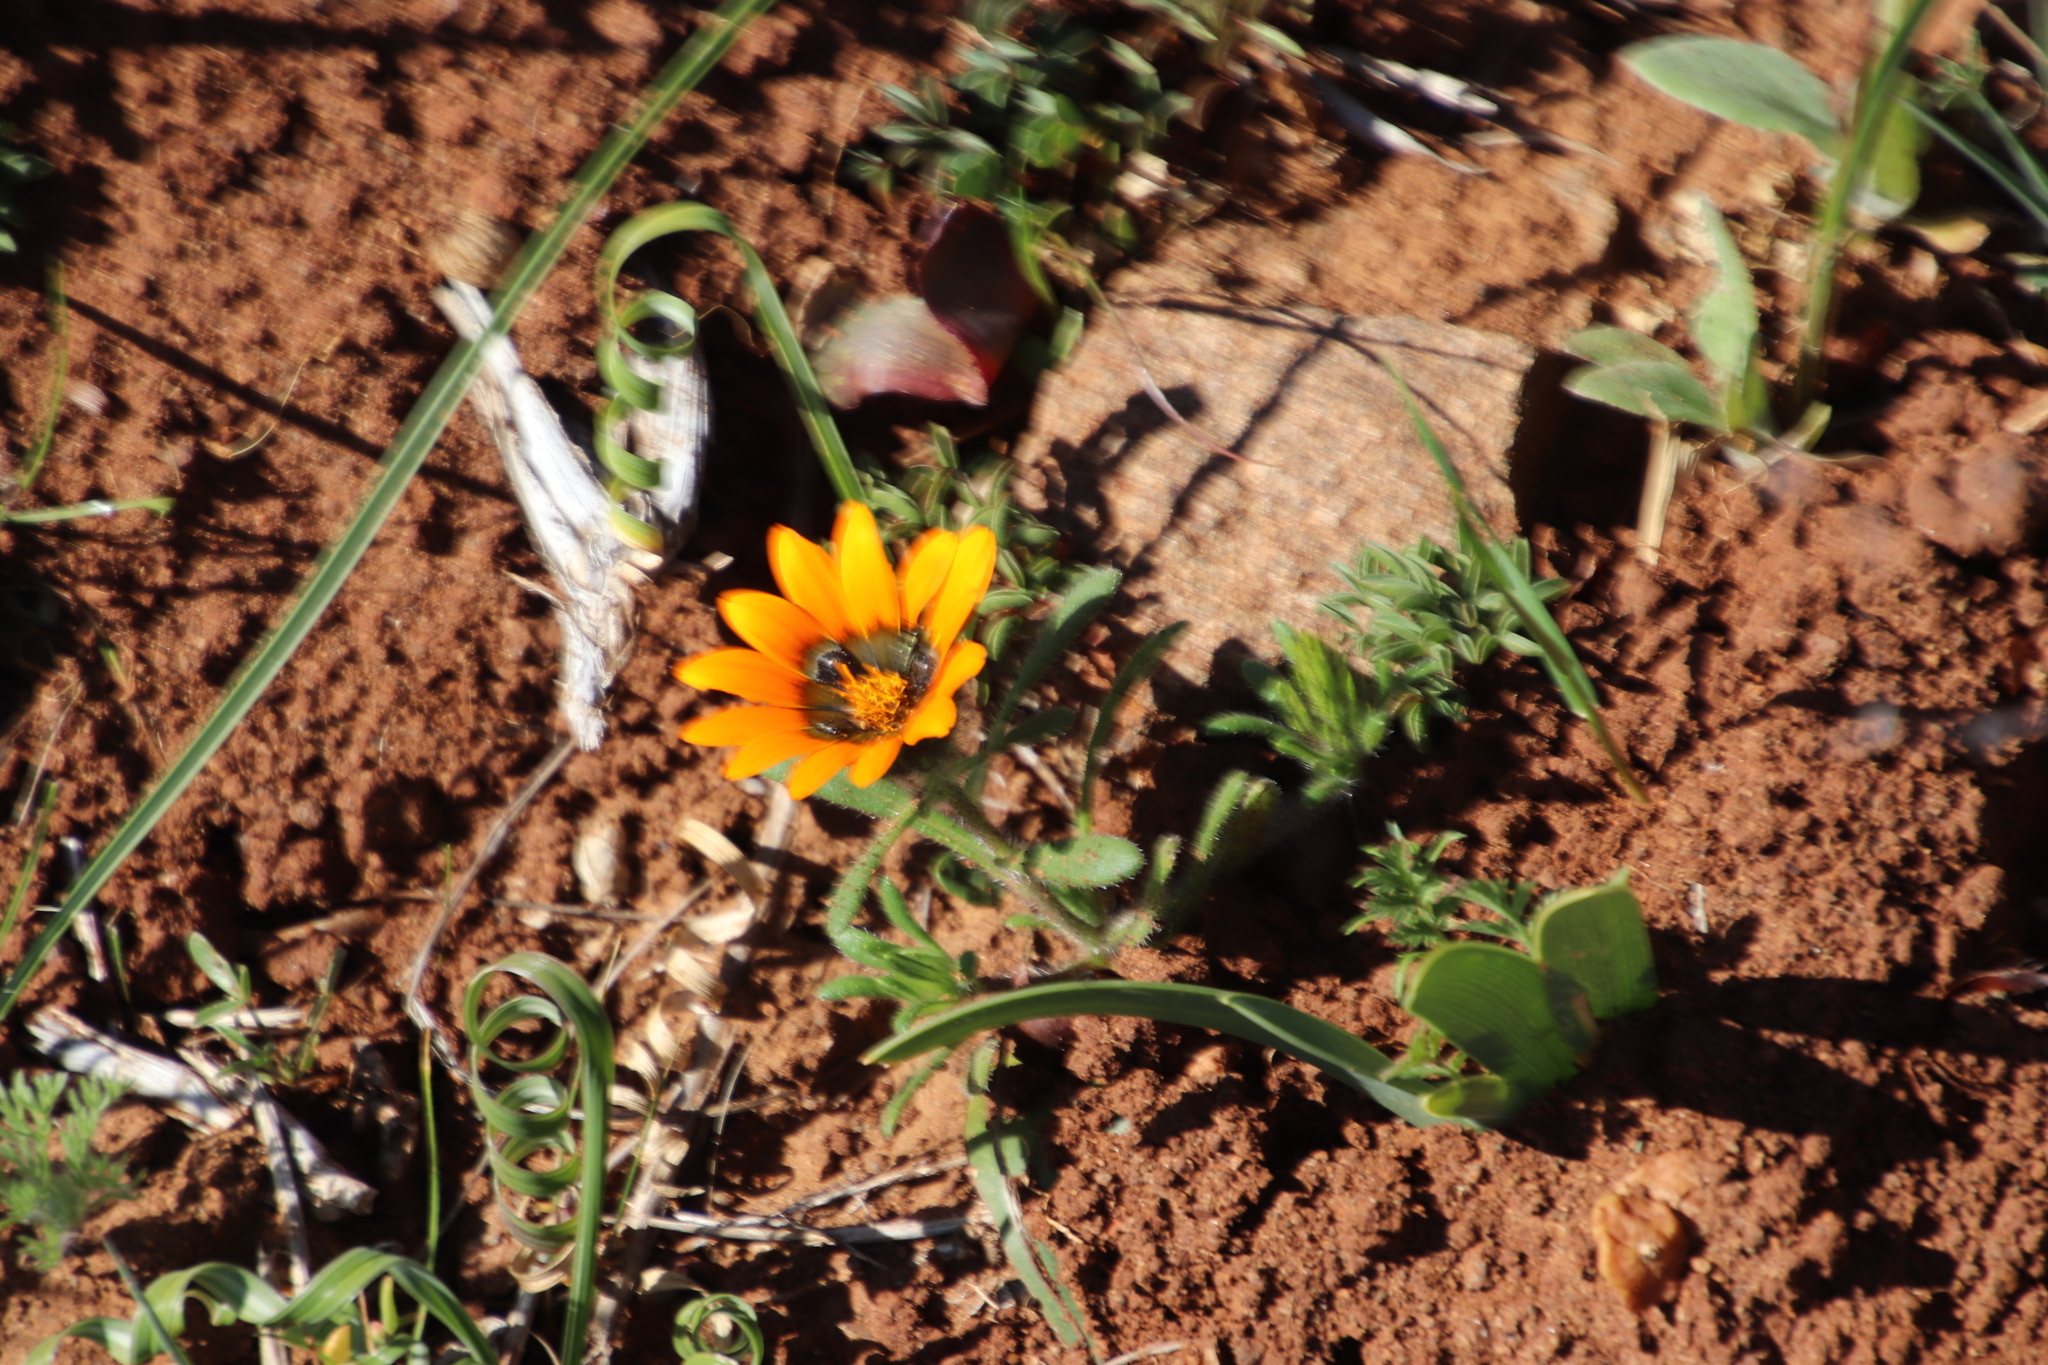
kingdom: Plantae
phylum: Tracheophyta
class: Magnoliopsida
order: Asterales
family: Asteraceae
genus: Gorteria
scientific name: Gorteria diffusa
